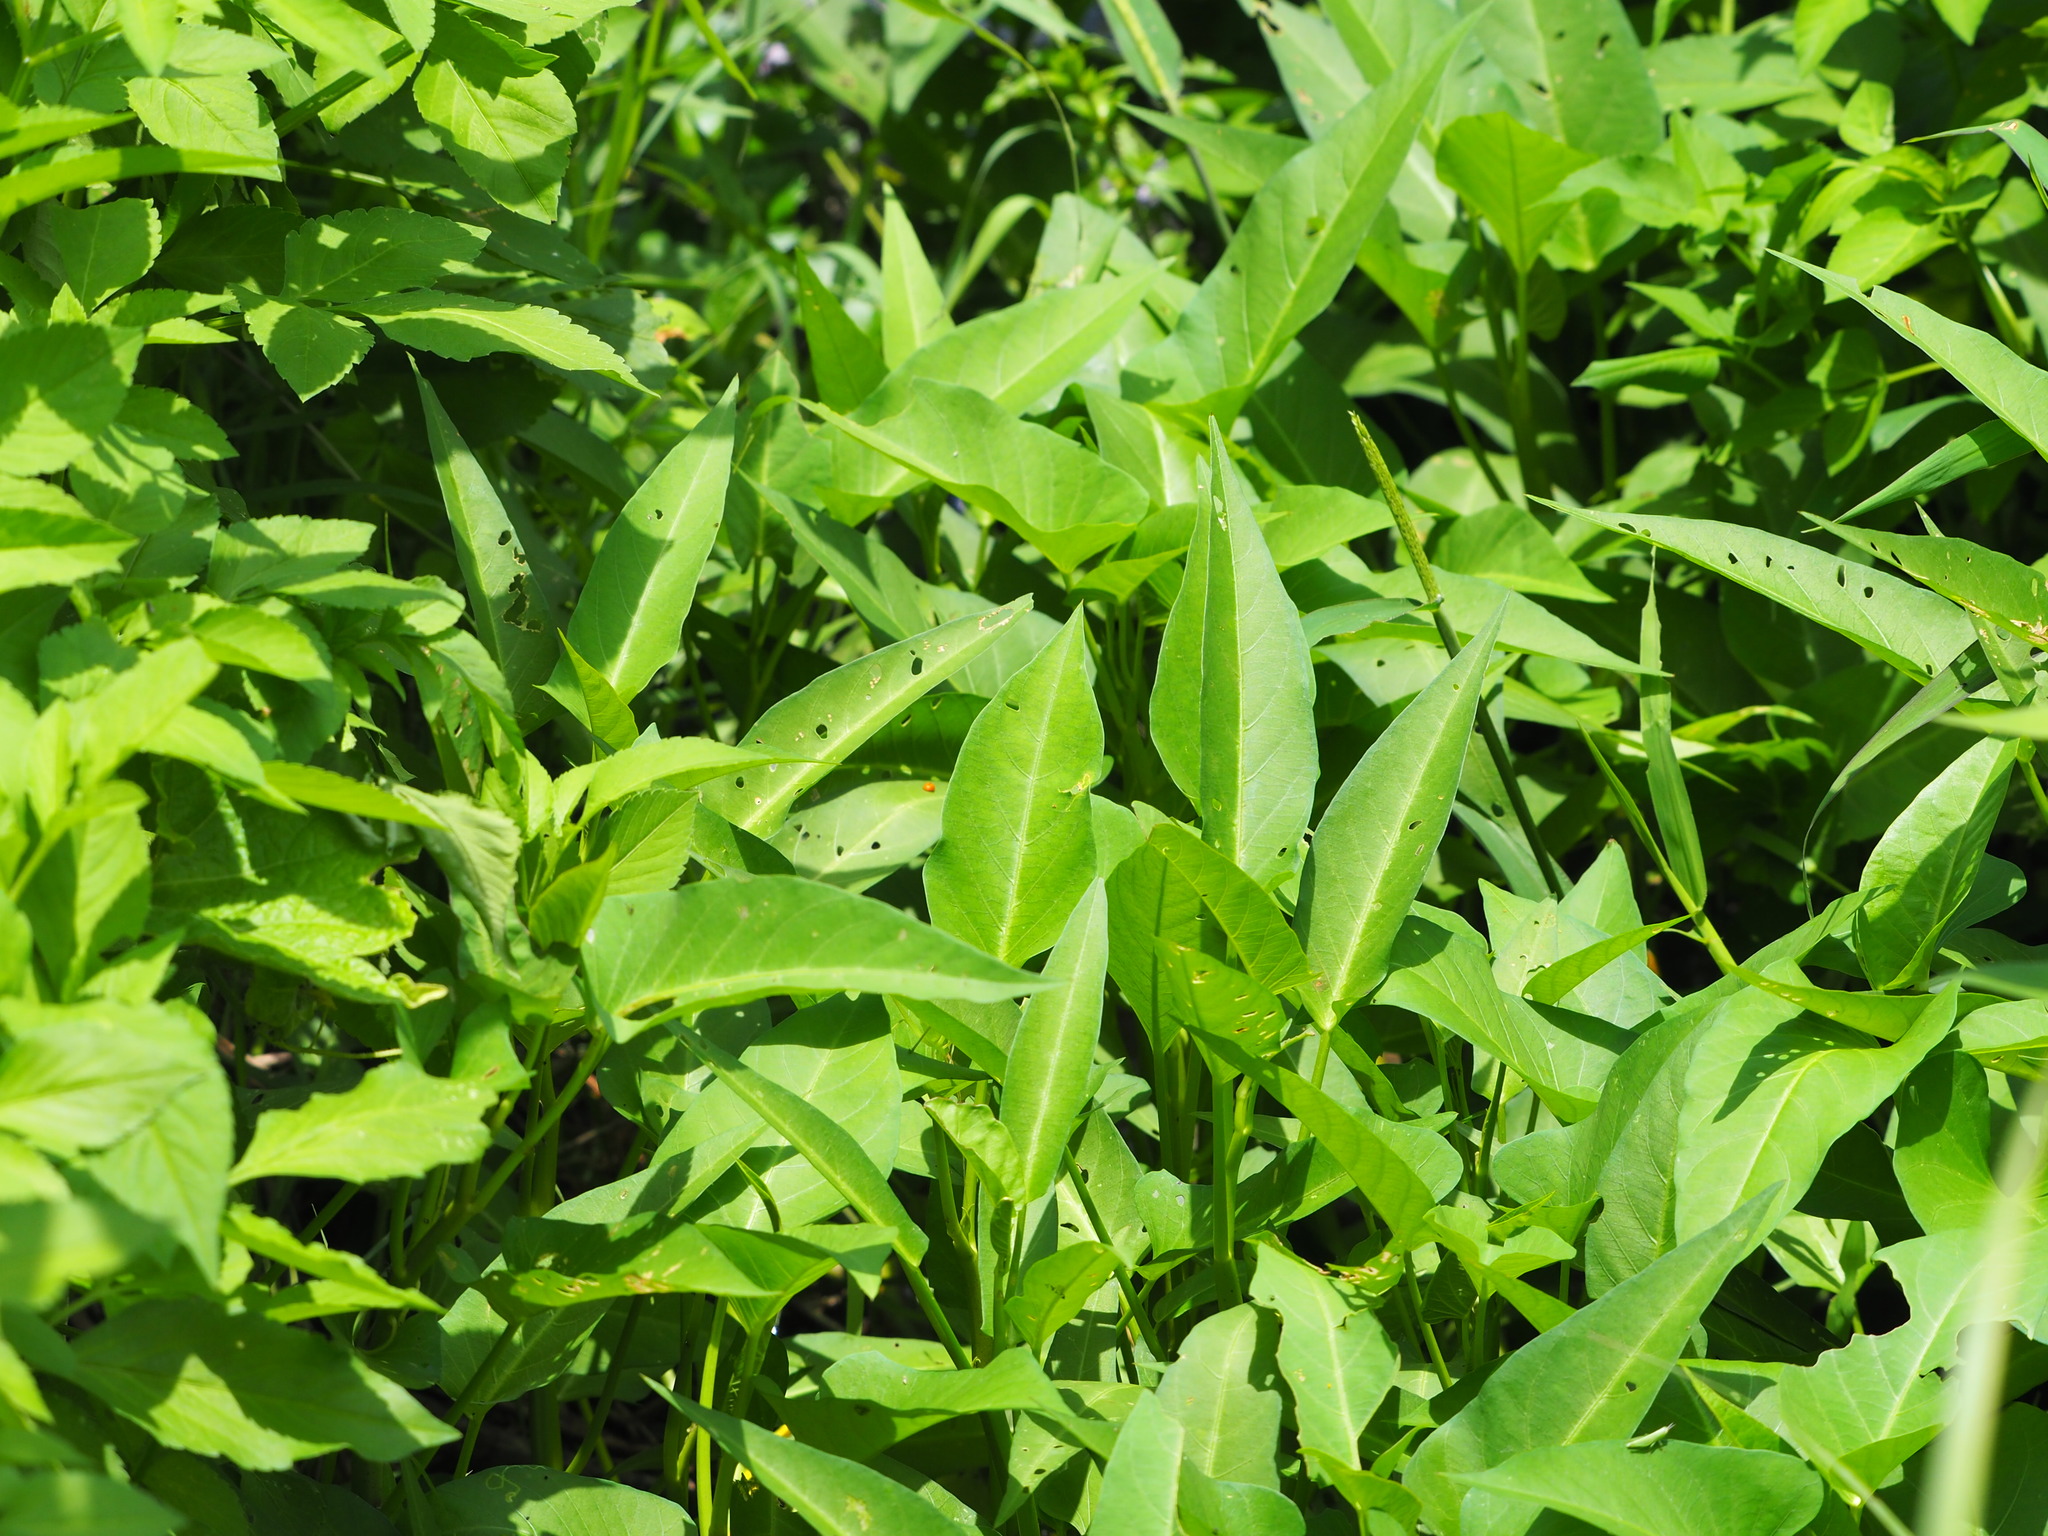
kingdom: Plantae
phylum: Tracheophyta
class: Magnoliopsida
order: Solanales
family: Convolvulaceae
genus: Ipomoea
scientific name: Ipomoea aquatica
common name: Swamp morning-glory
